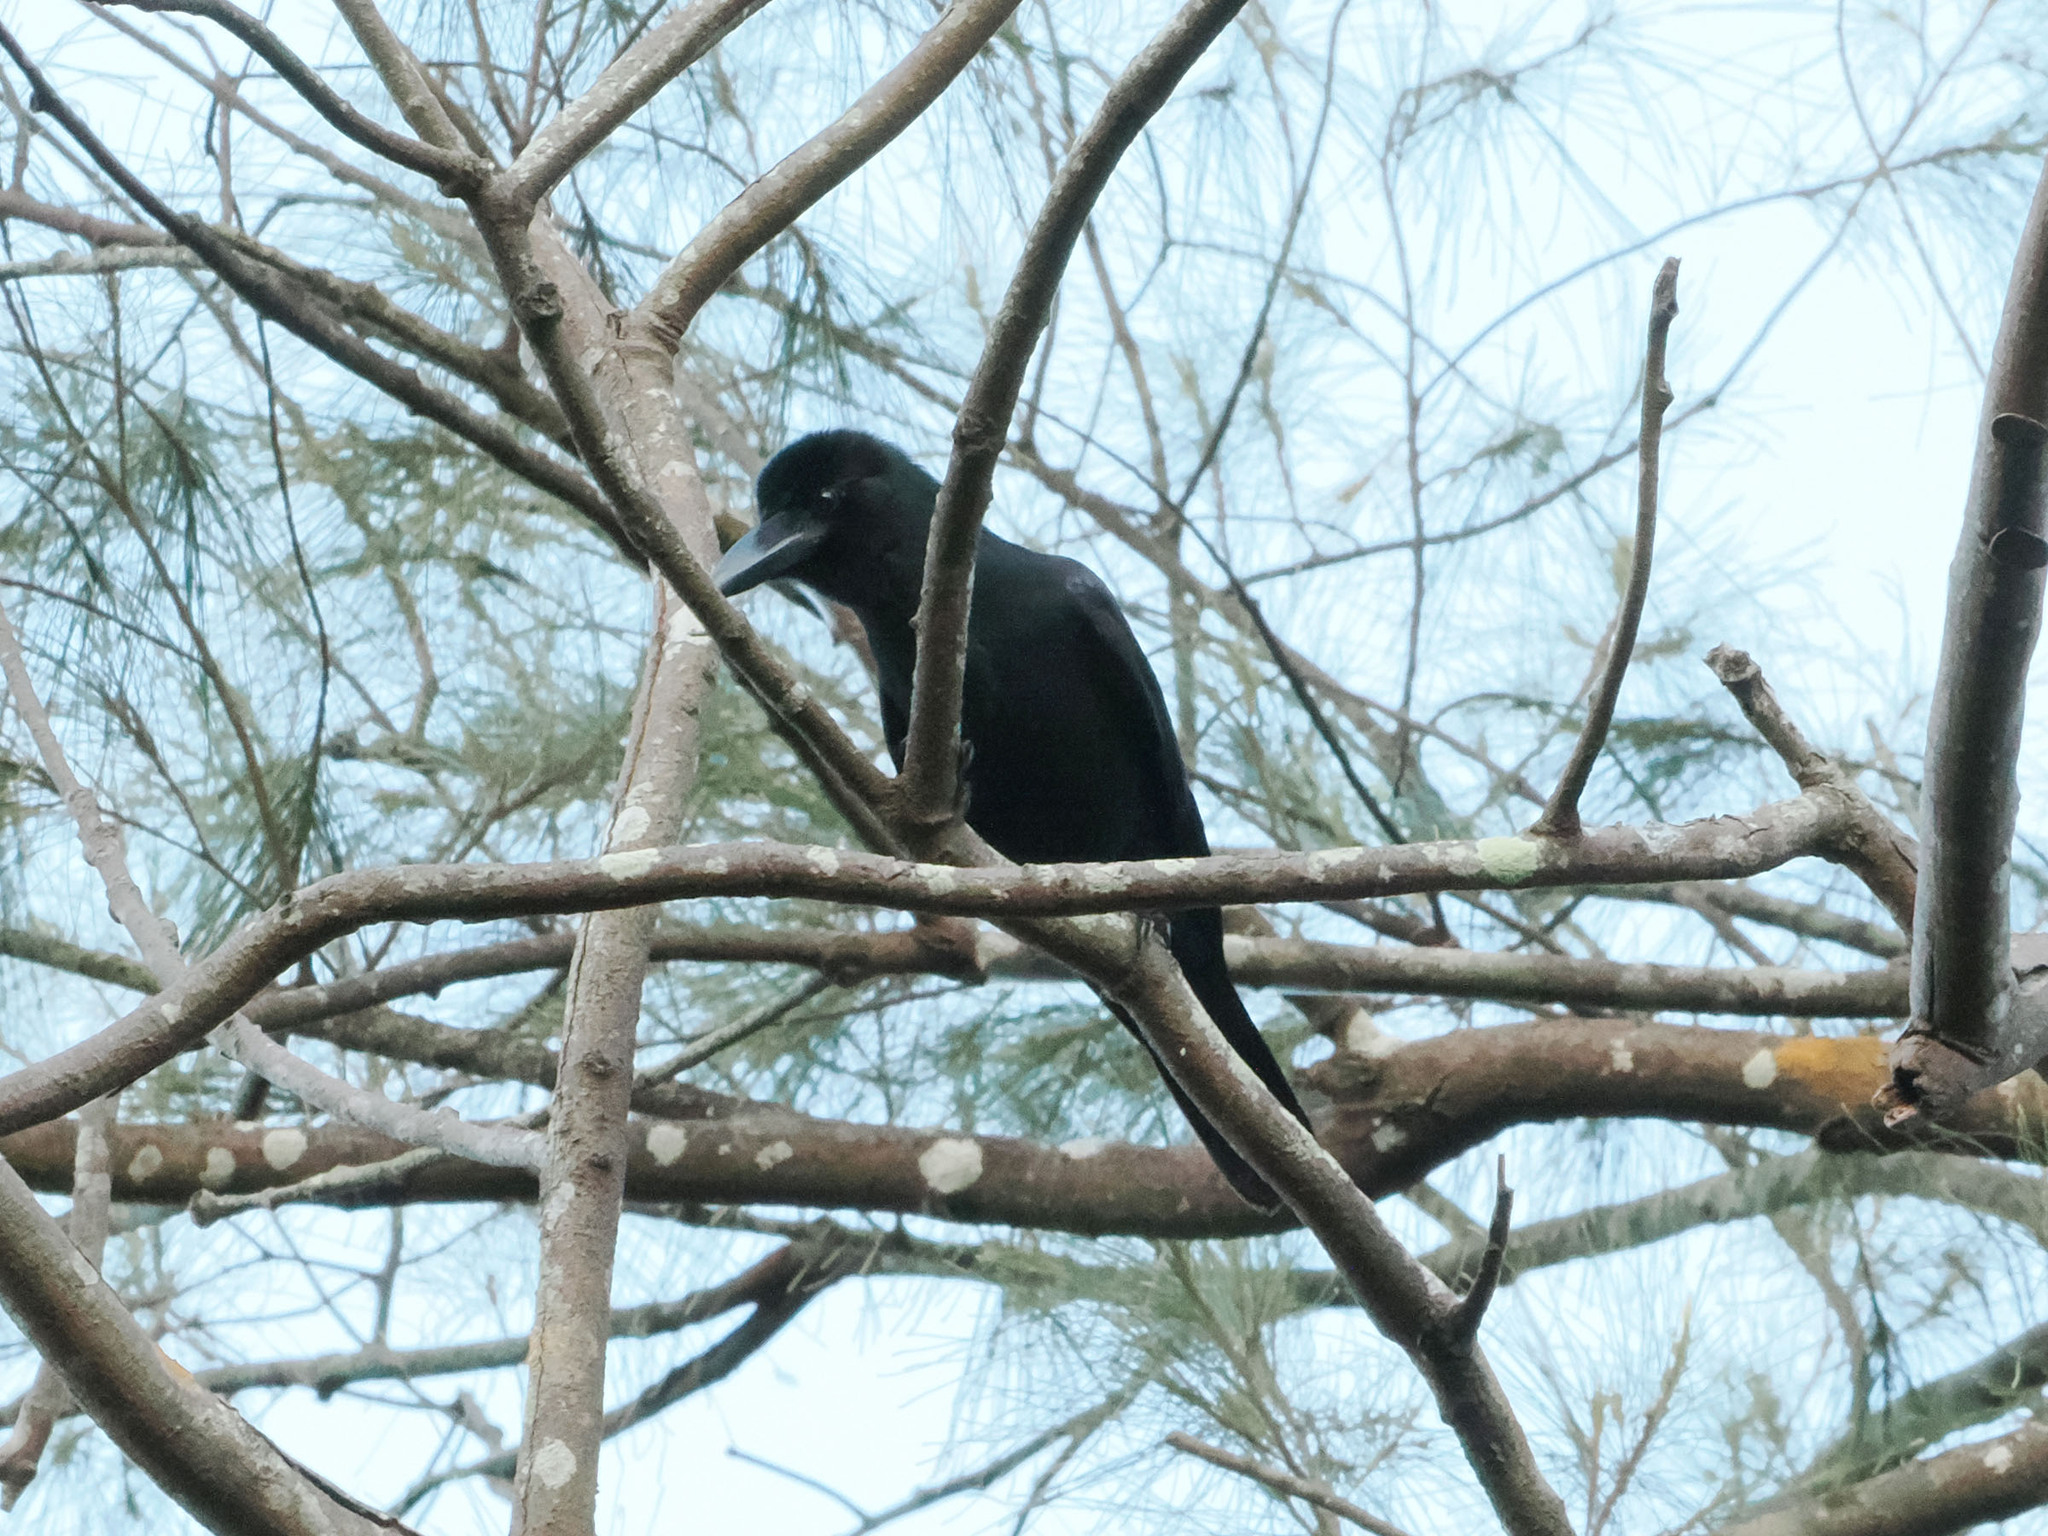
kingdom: Animalia
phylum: Chordata
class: Aves
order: Passeriformes
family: Corvidae
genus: Corvus
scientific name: Corvus macrorhynchos
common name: Large-billed crow
